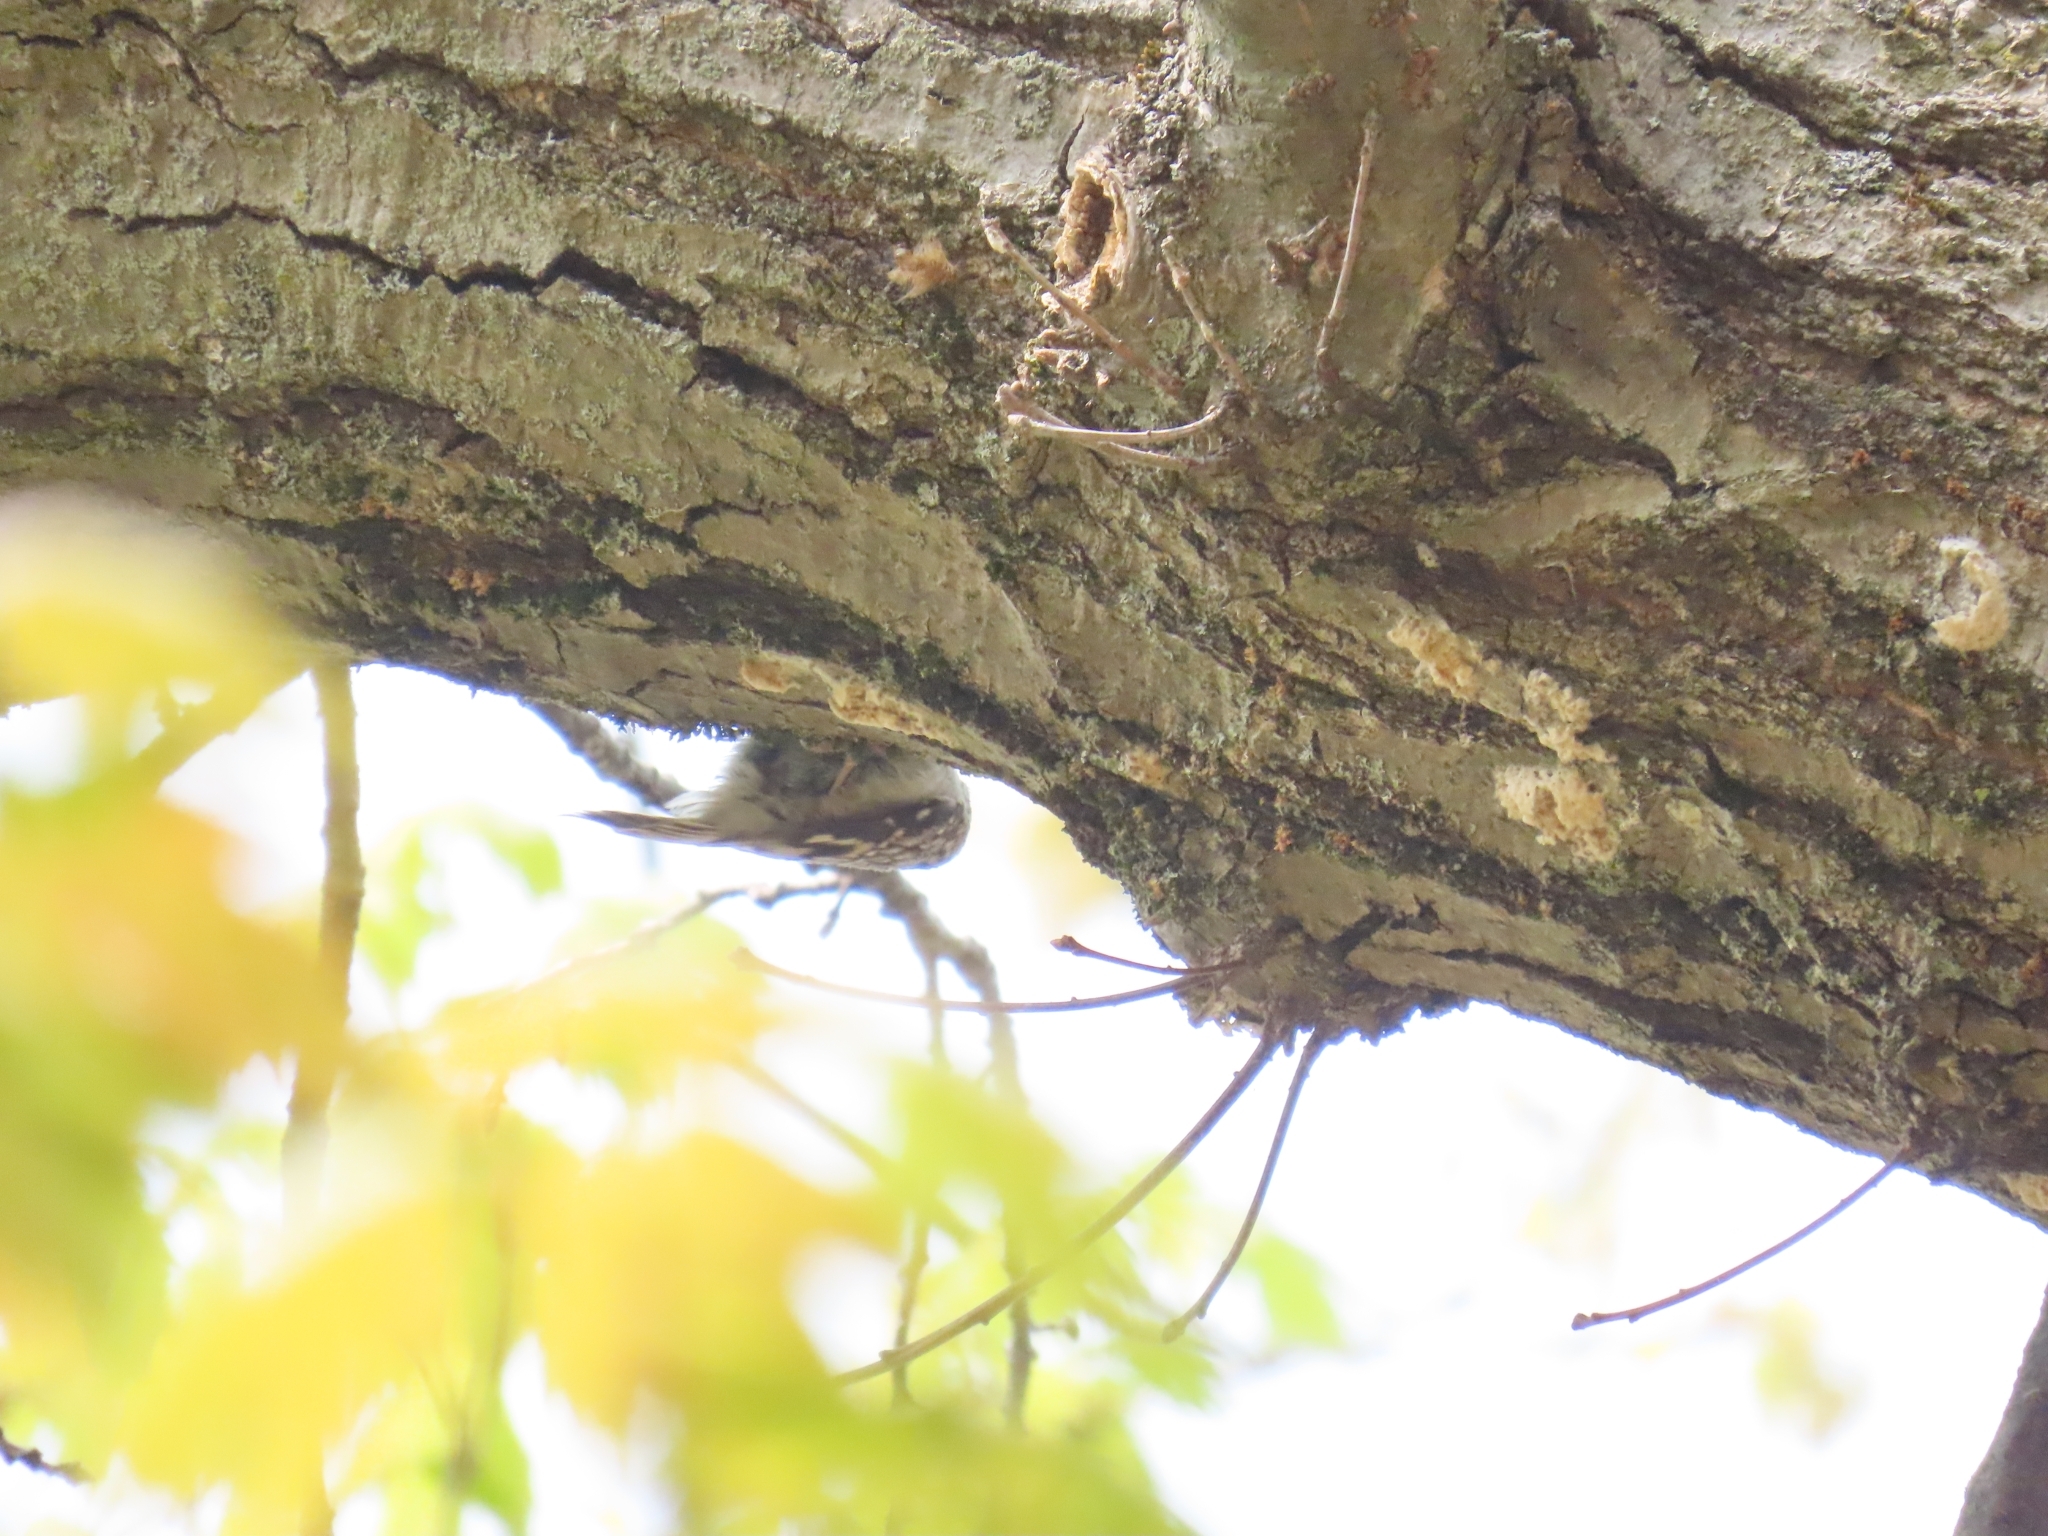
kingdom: Animalia
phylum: Chordata
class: Aves
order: Passeriformes
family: Certhiidae
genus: Certhia
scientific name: Certhia americana
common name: Brown creeper
